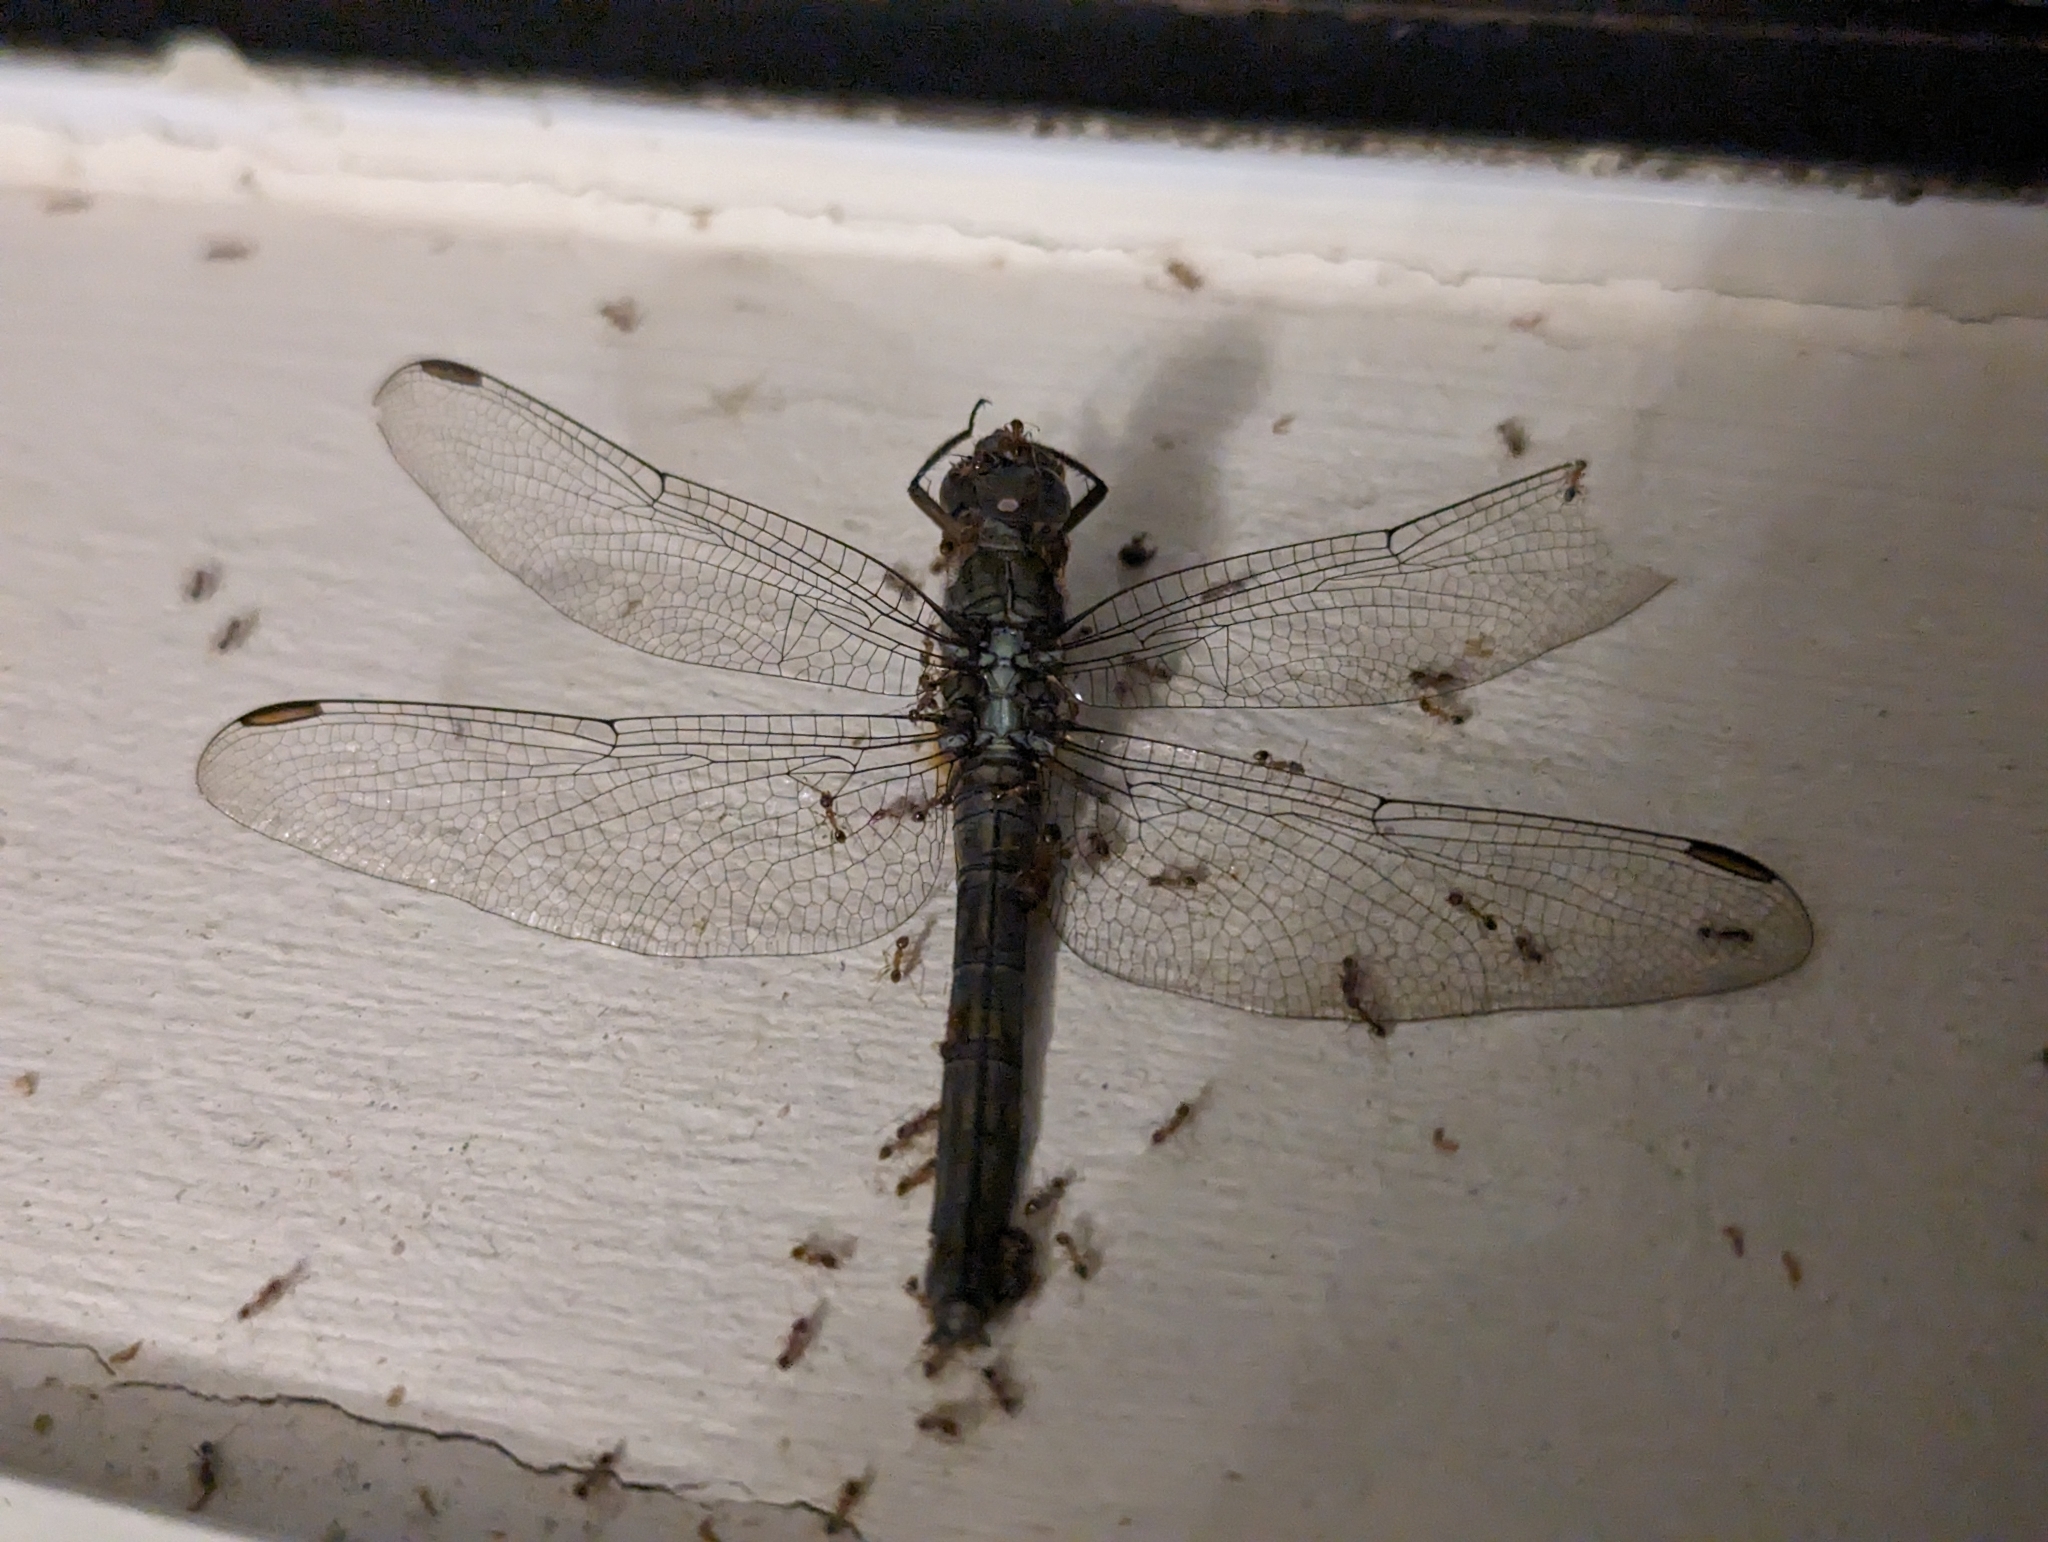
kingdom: Animalia
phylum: Arthropoda
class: Insecta
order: Odonata
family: Libellulidae
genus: Orthetrum
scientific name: Orthetrum julia
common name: Julia skimmer
